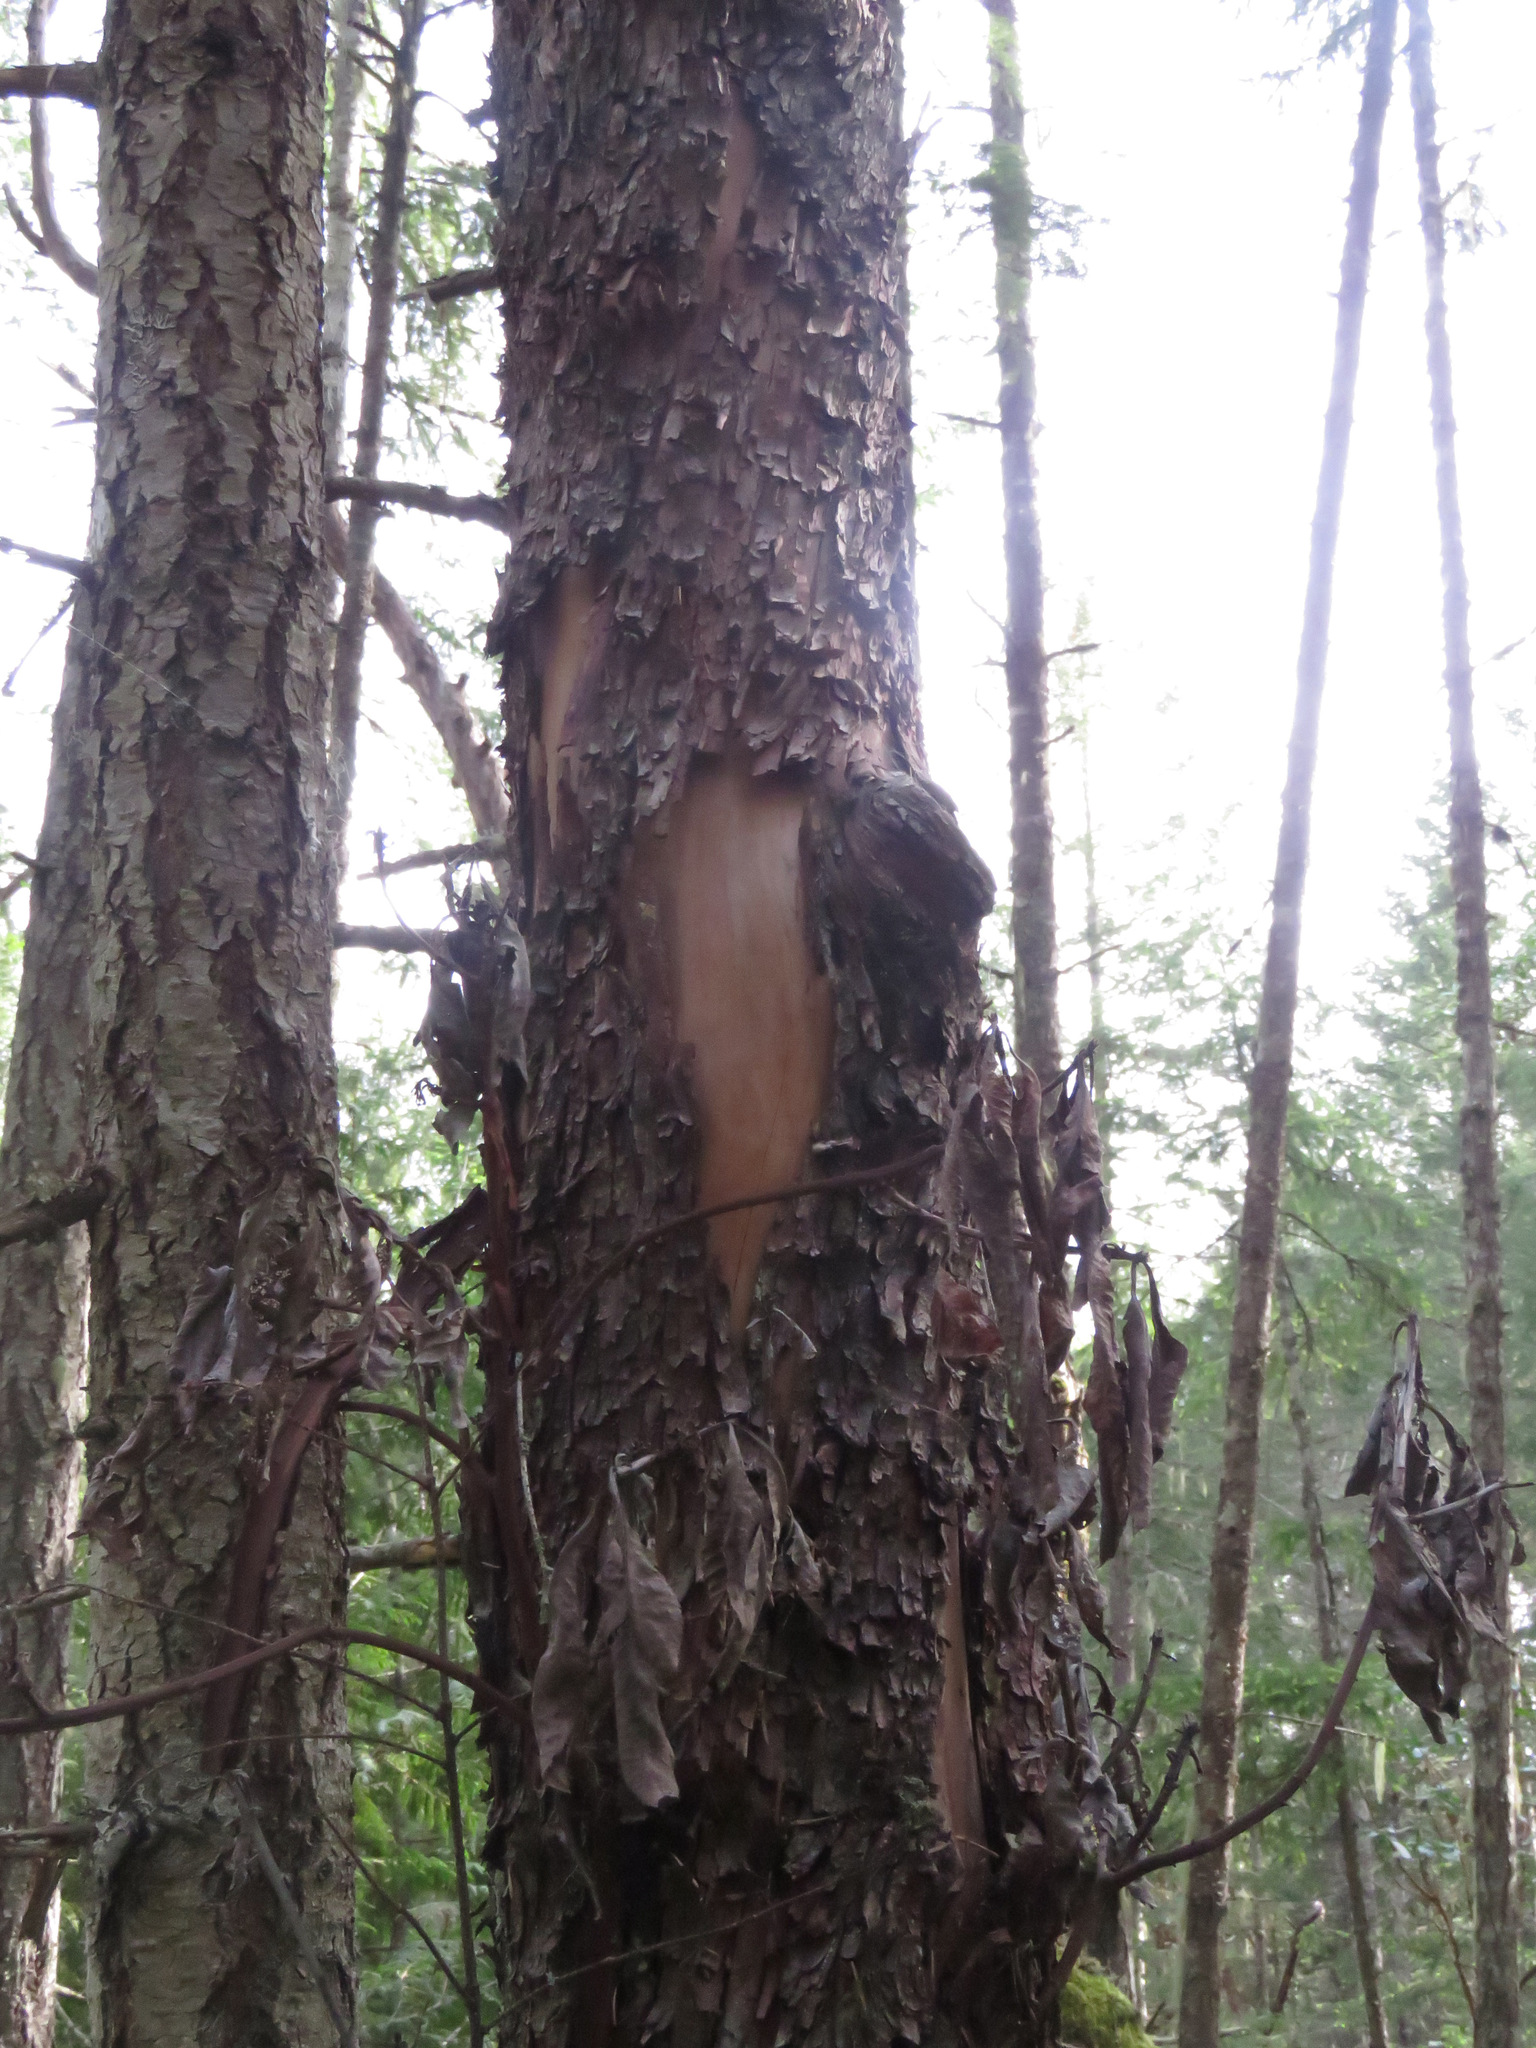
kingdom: Plantae
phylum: Tracheophyta
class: Magnoliopsida
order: Ericales
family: Ericaceae
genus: Arbutus
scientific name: Arbutus menziesii
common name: Pacific madrone
